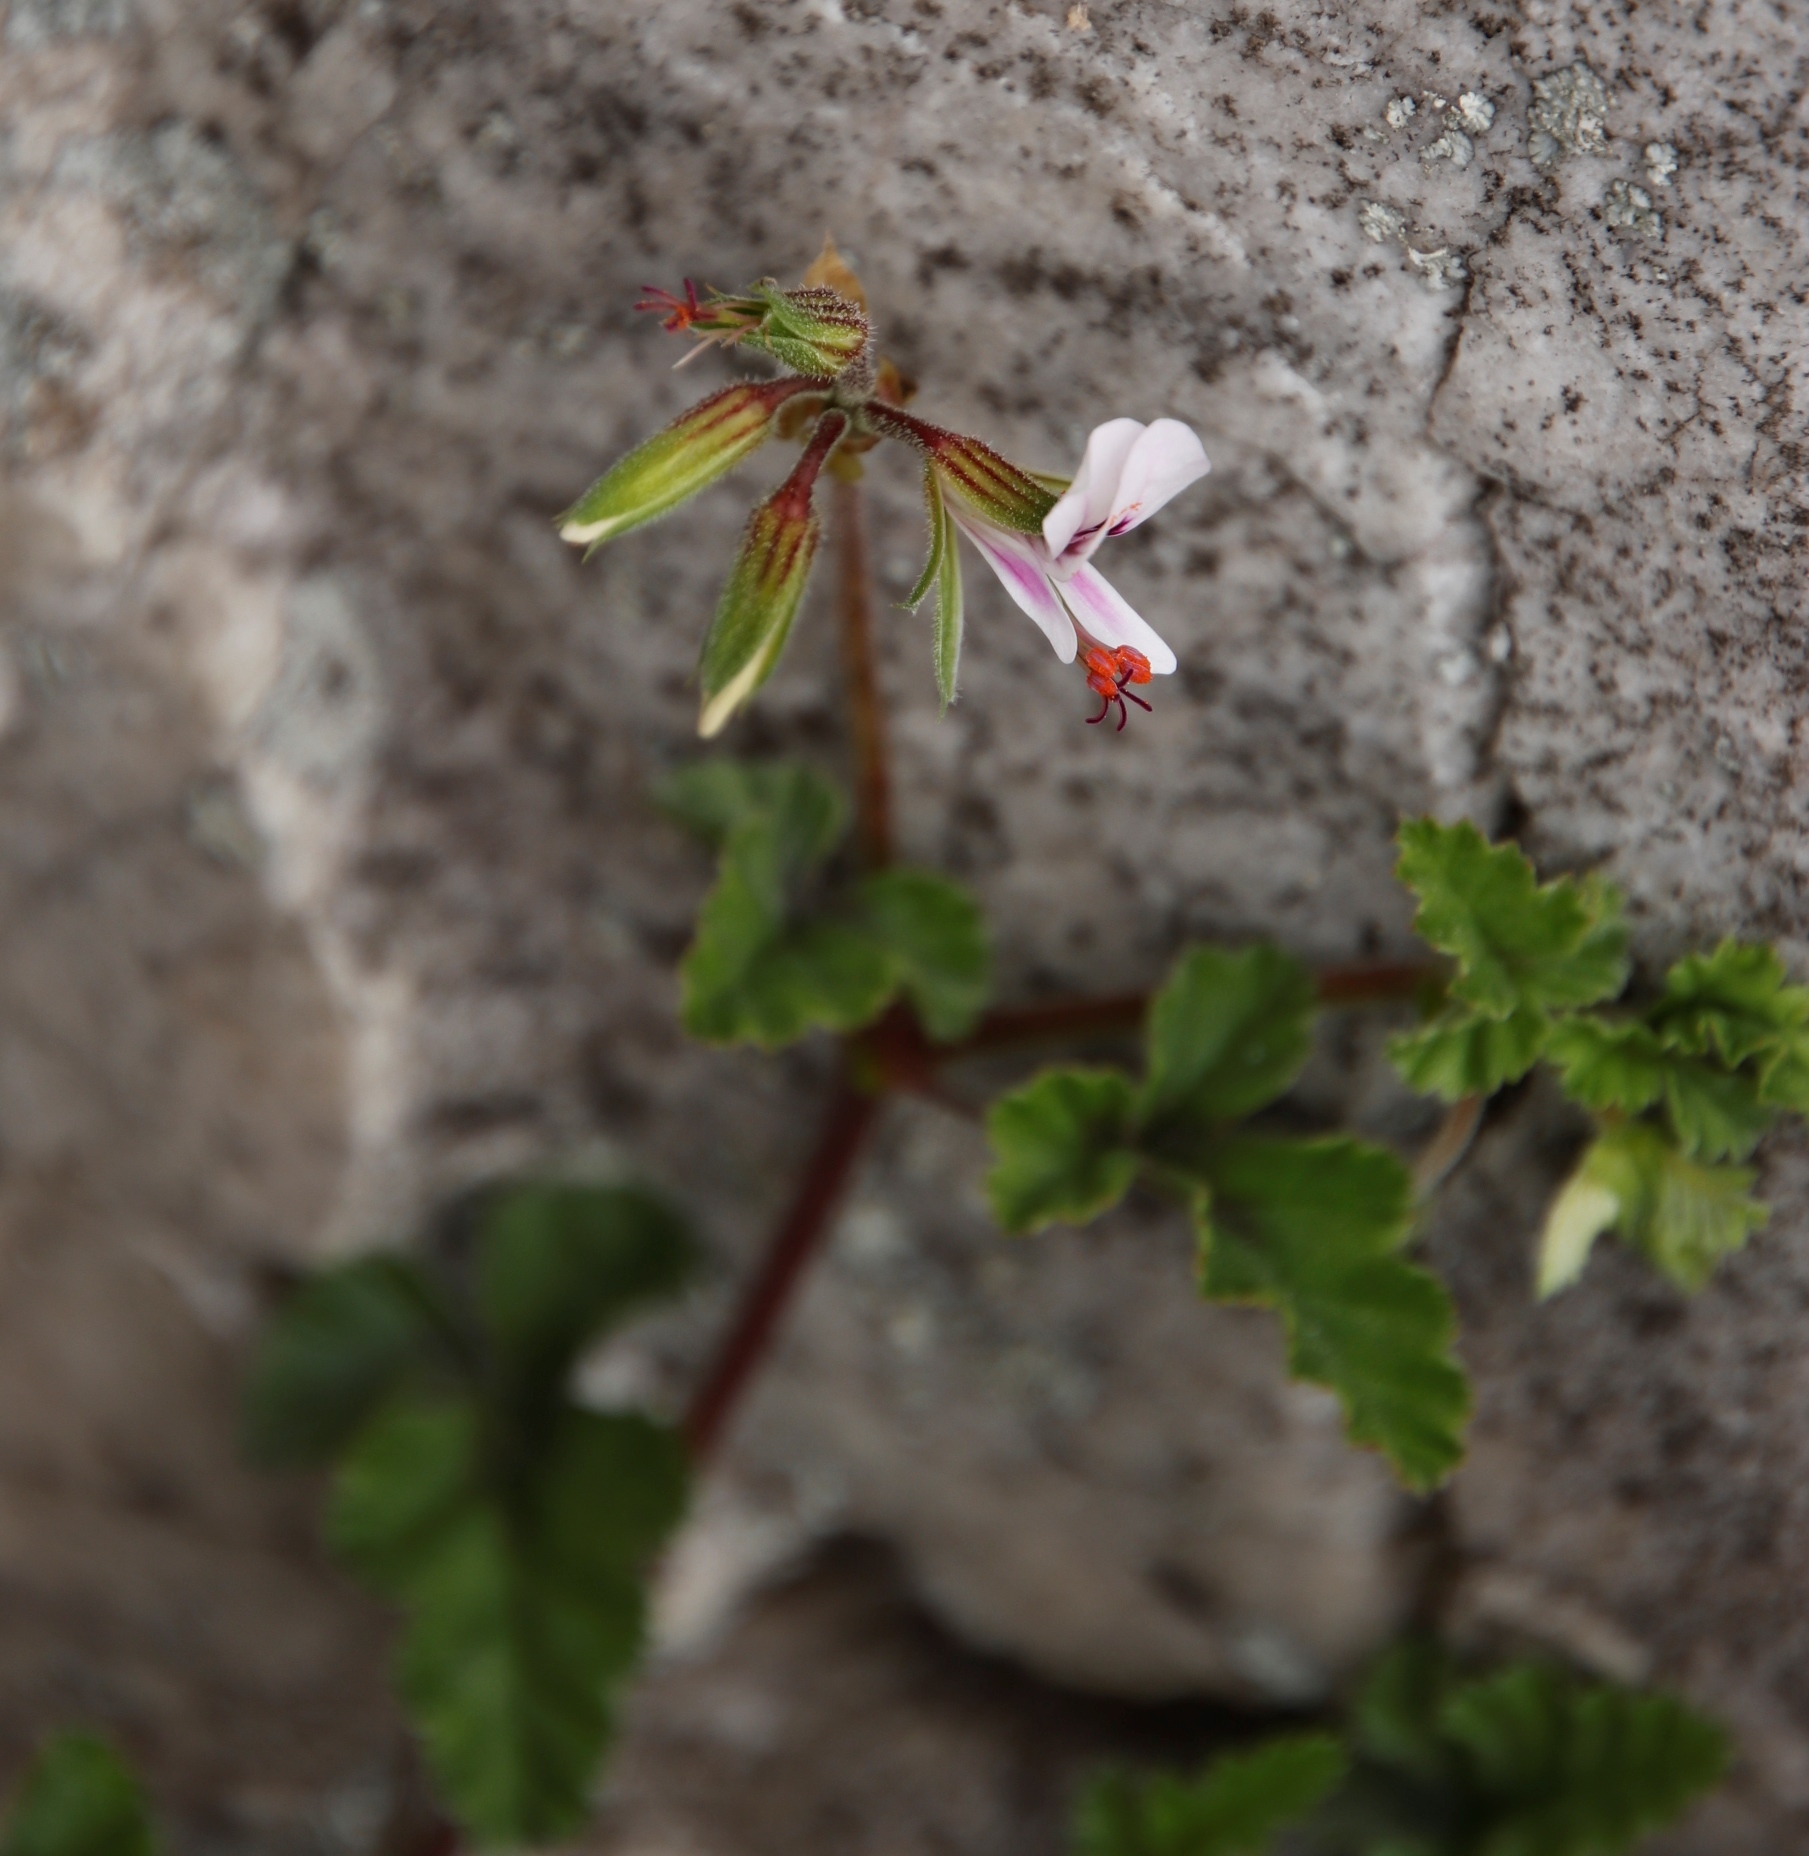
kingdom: Plantae
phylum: Tracheophyta
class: Magnoliopsida
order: Geraniales
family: Geraniaceae
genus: Pelargonium
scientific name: Pelargonium candicans
